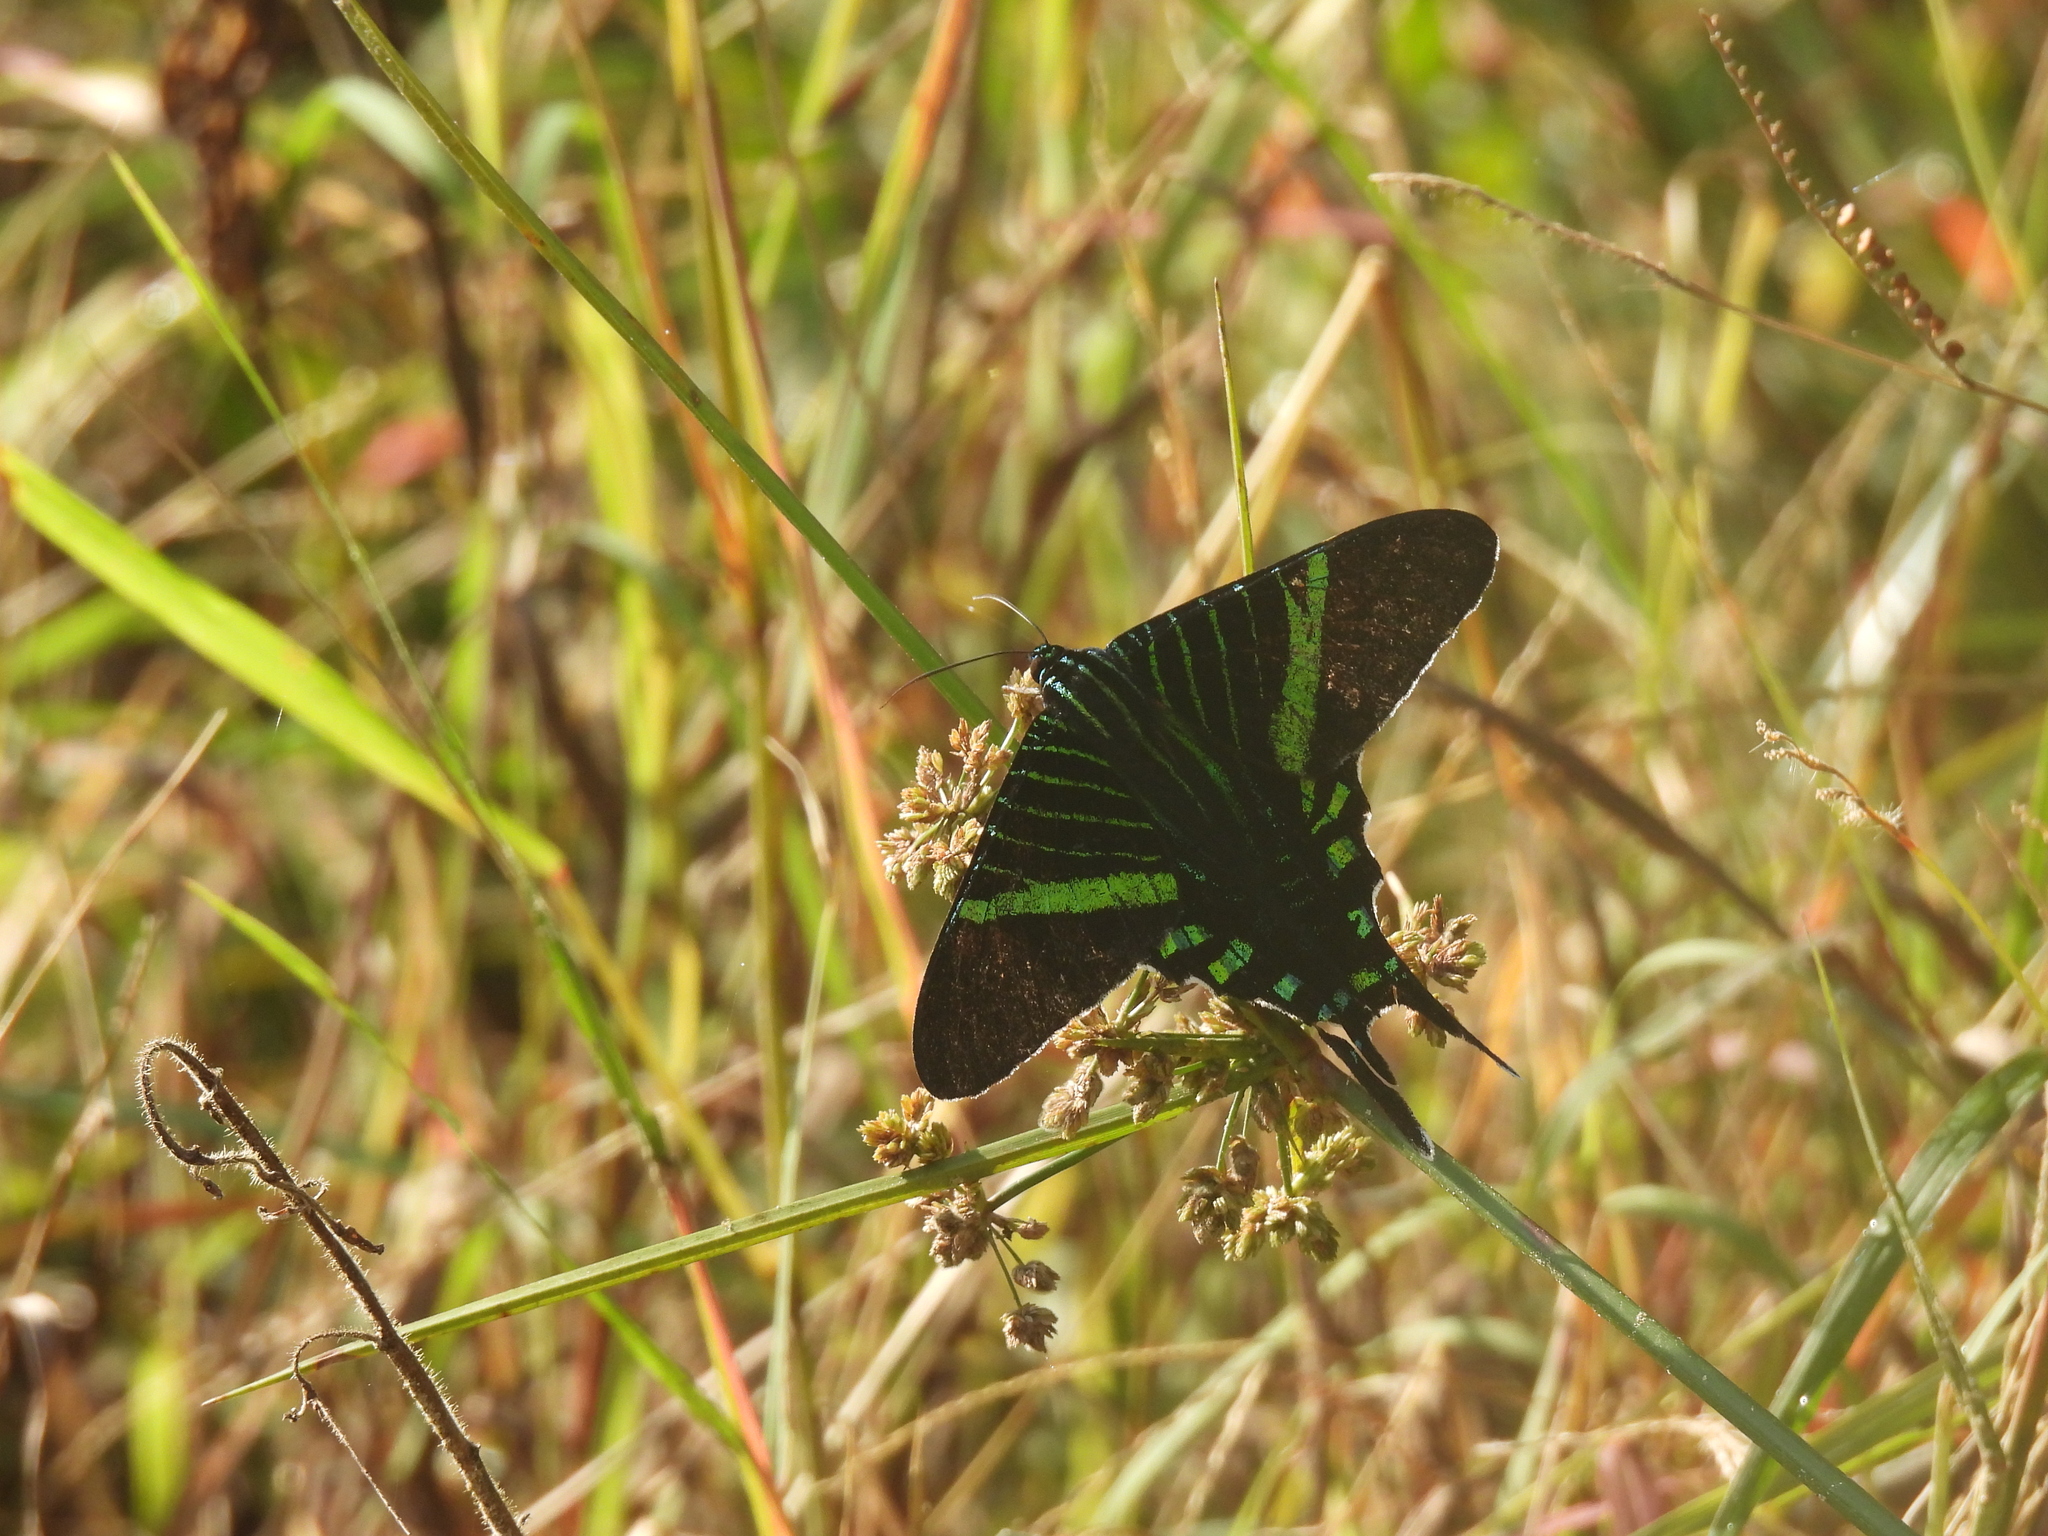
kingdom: Animalia
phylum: Arthropoda
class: Insecta
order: Lepidoptera
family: Uraniidae
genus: Urania
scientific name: Urania fulgens
